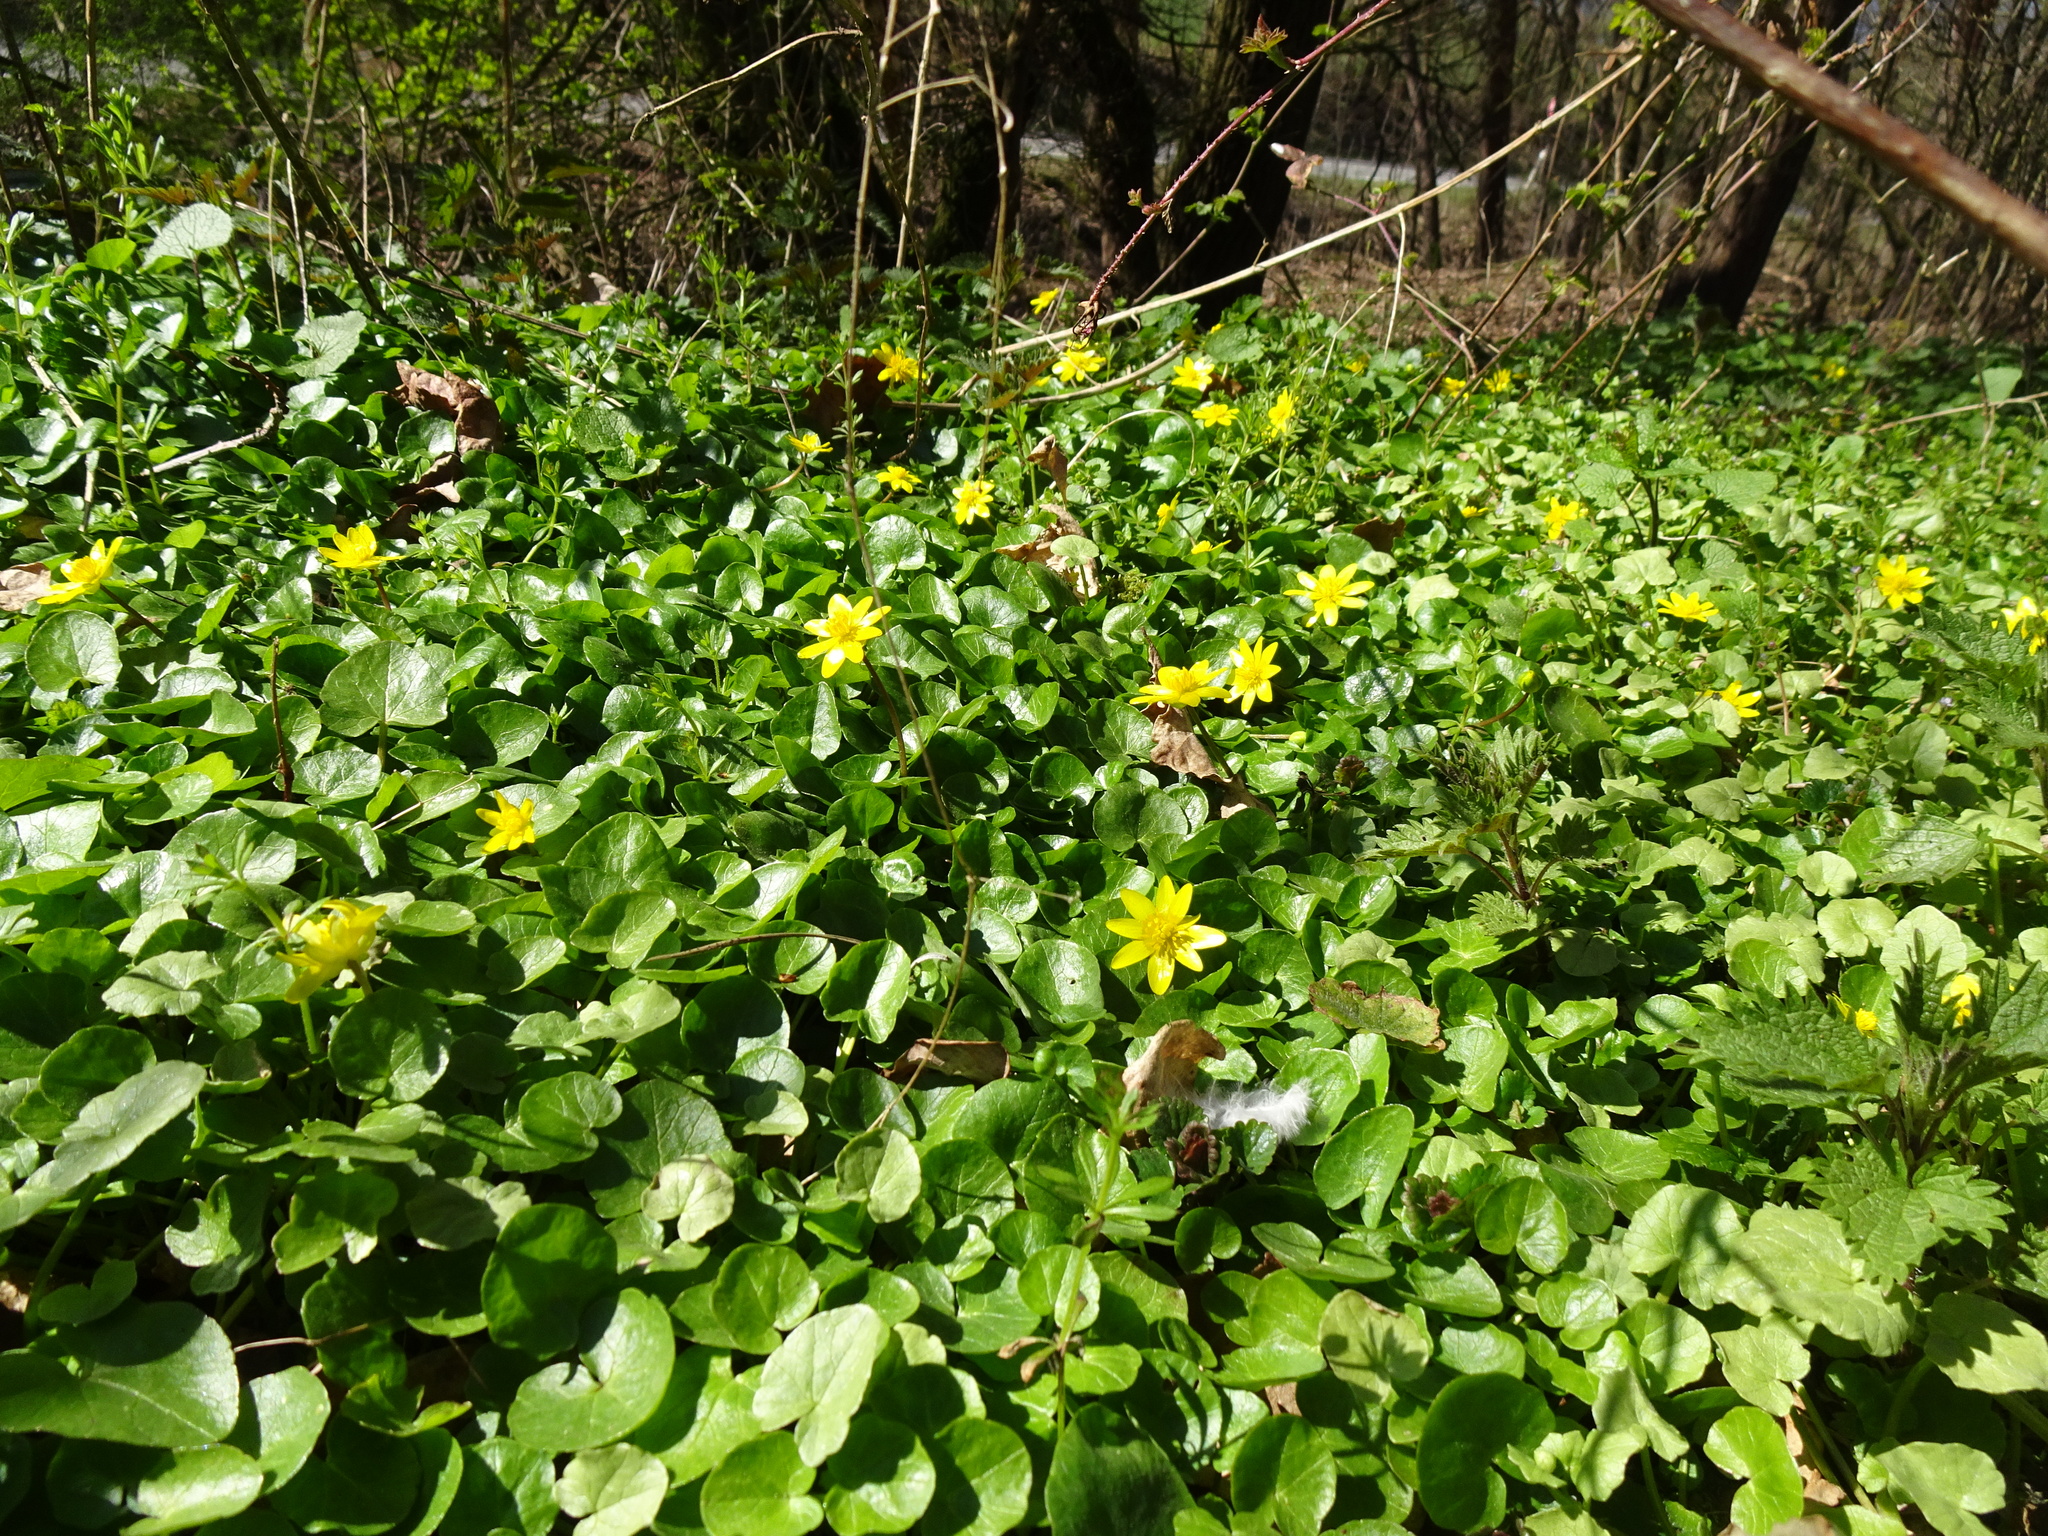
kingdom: Plantae
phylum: Tracheophyta
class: Magnoliopsida
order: Ranunculales
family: Ranunculaceae
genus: Ficaria
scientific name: Ficaria verna
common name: Lesser celandine
